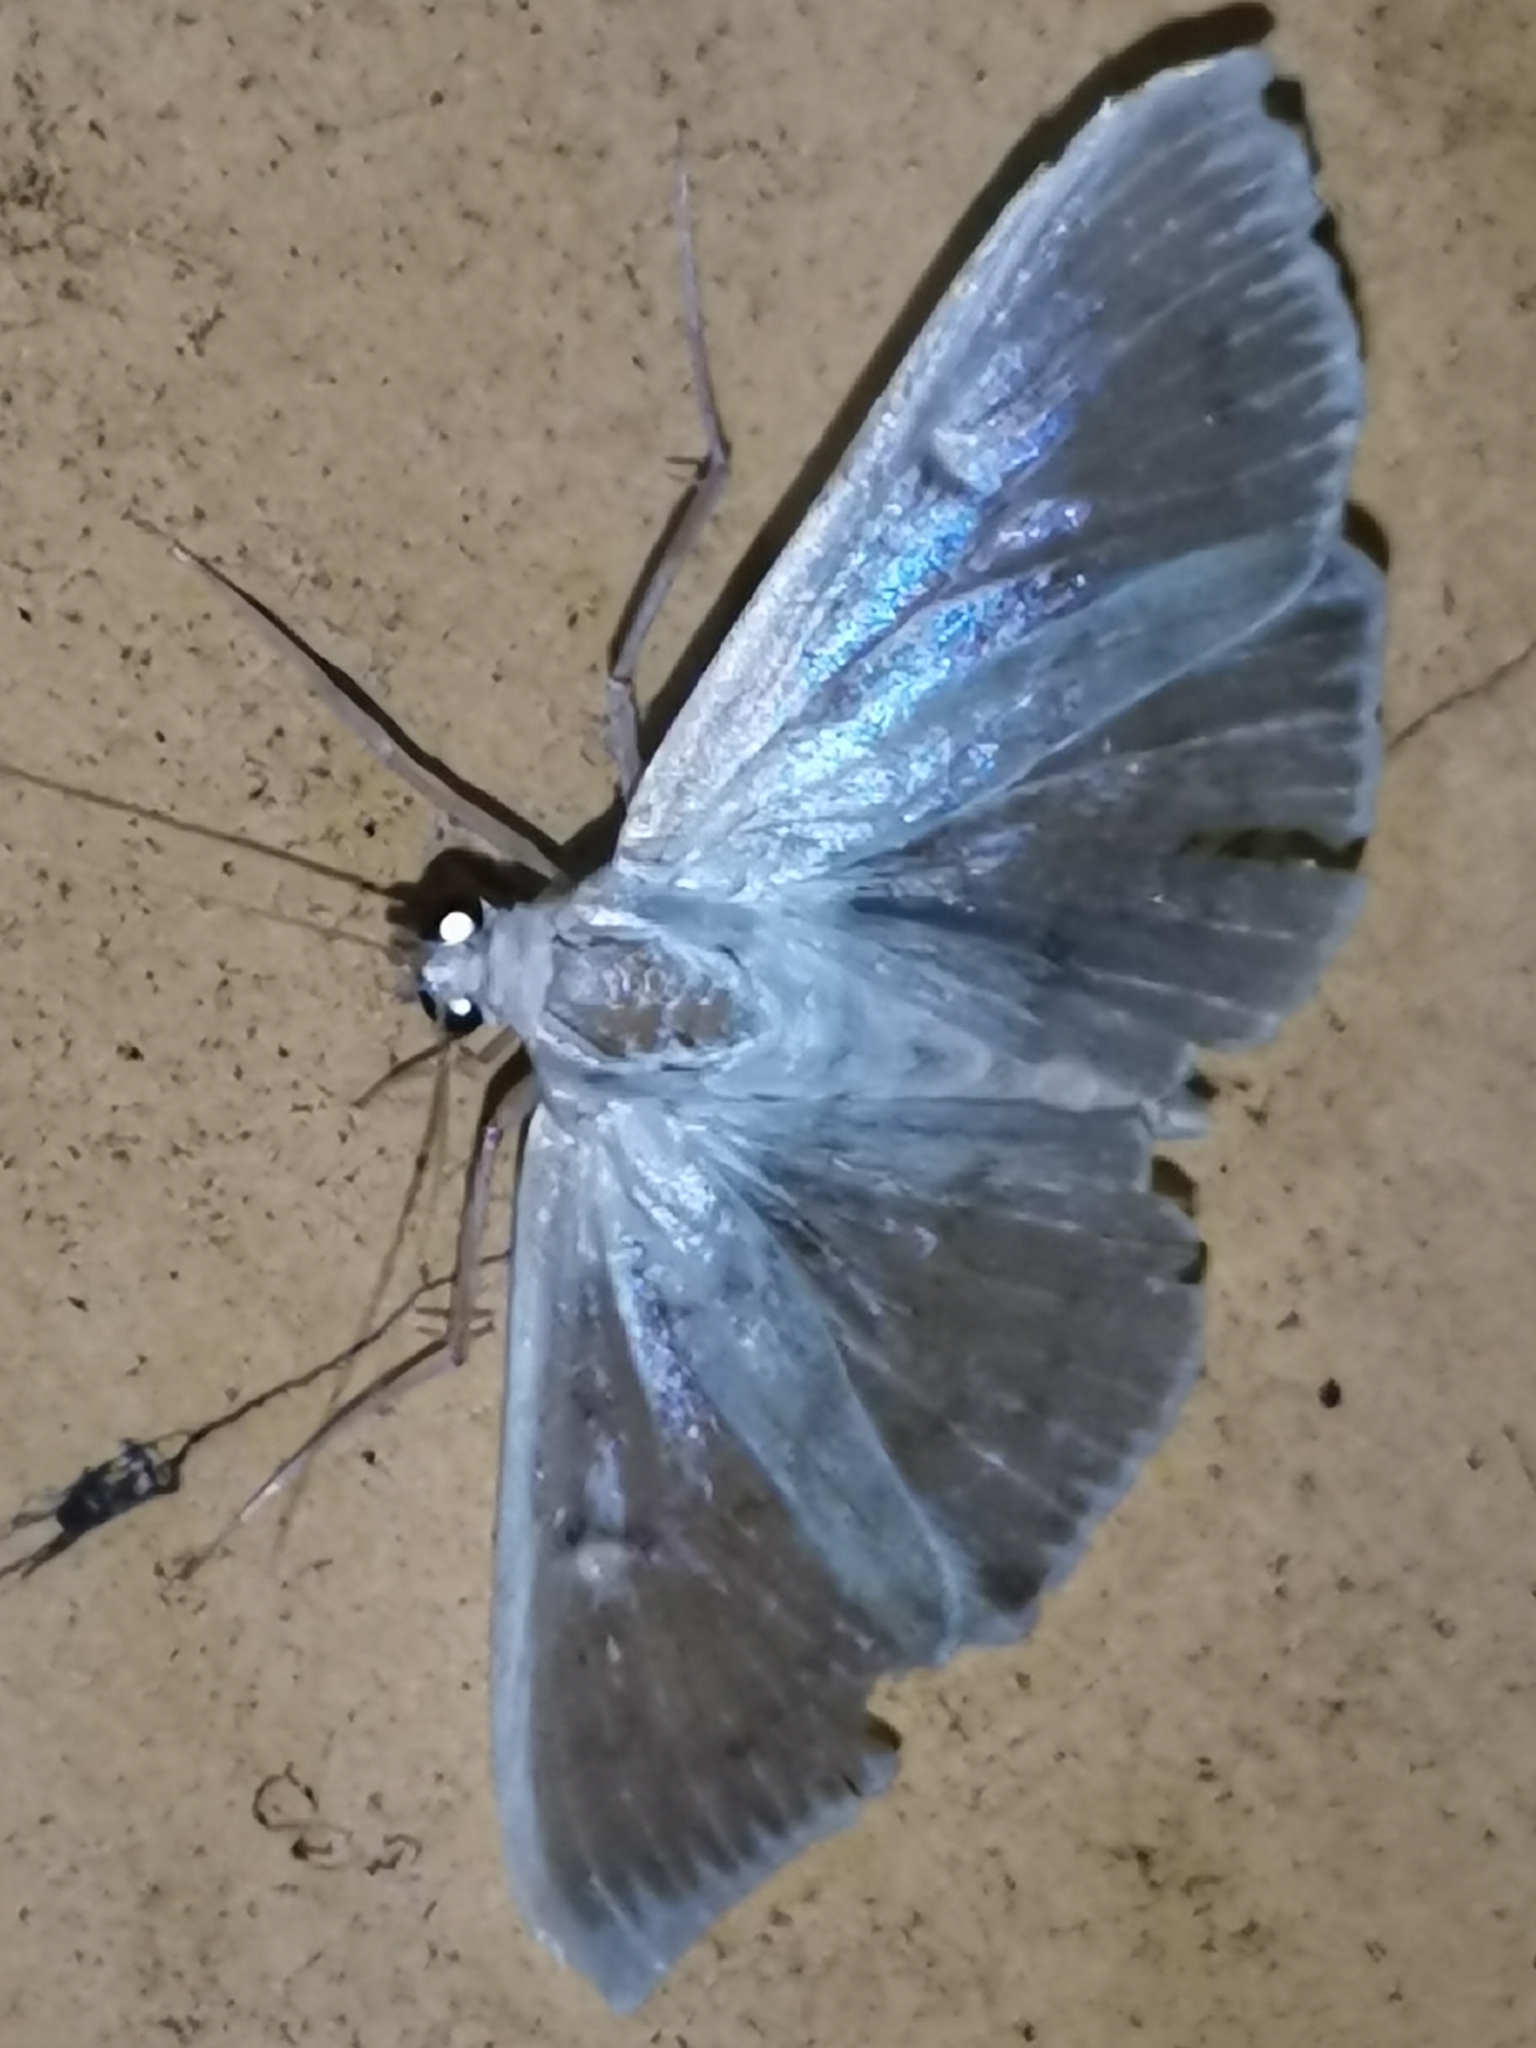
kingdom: Animalia
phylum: Arthropoda
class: Insecta
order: Lepidoptera
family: Crambidae
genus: Patania
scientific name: Patania ruralis
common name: Mother of pearl
